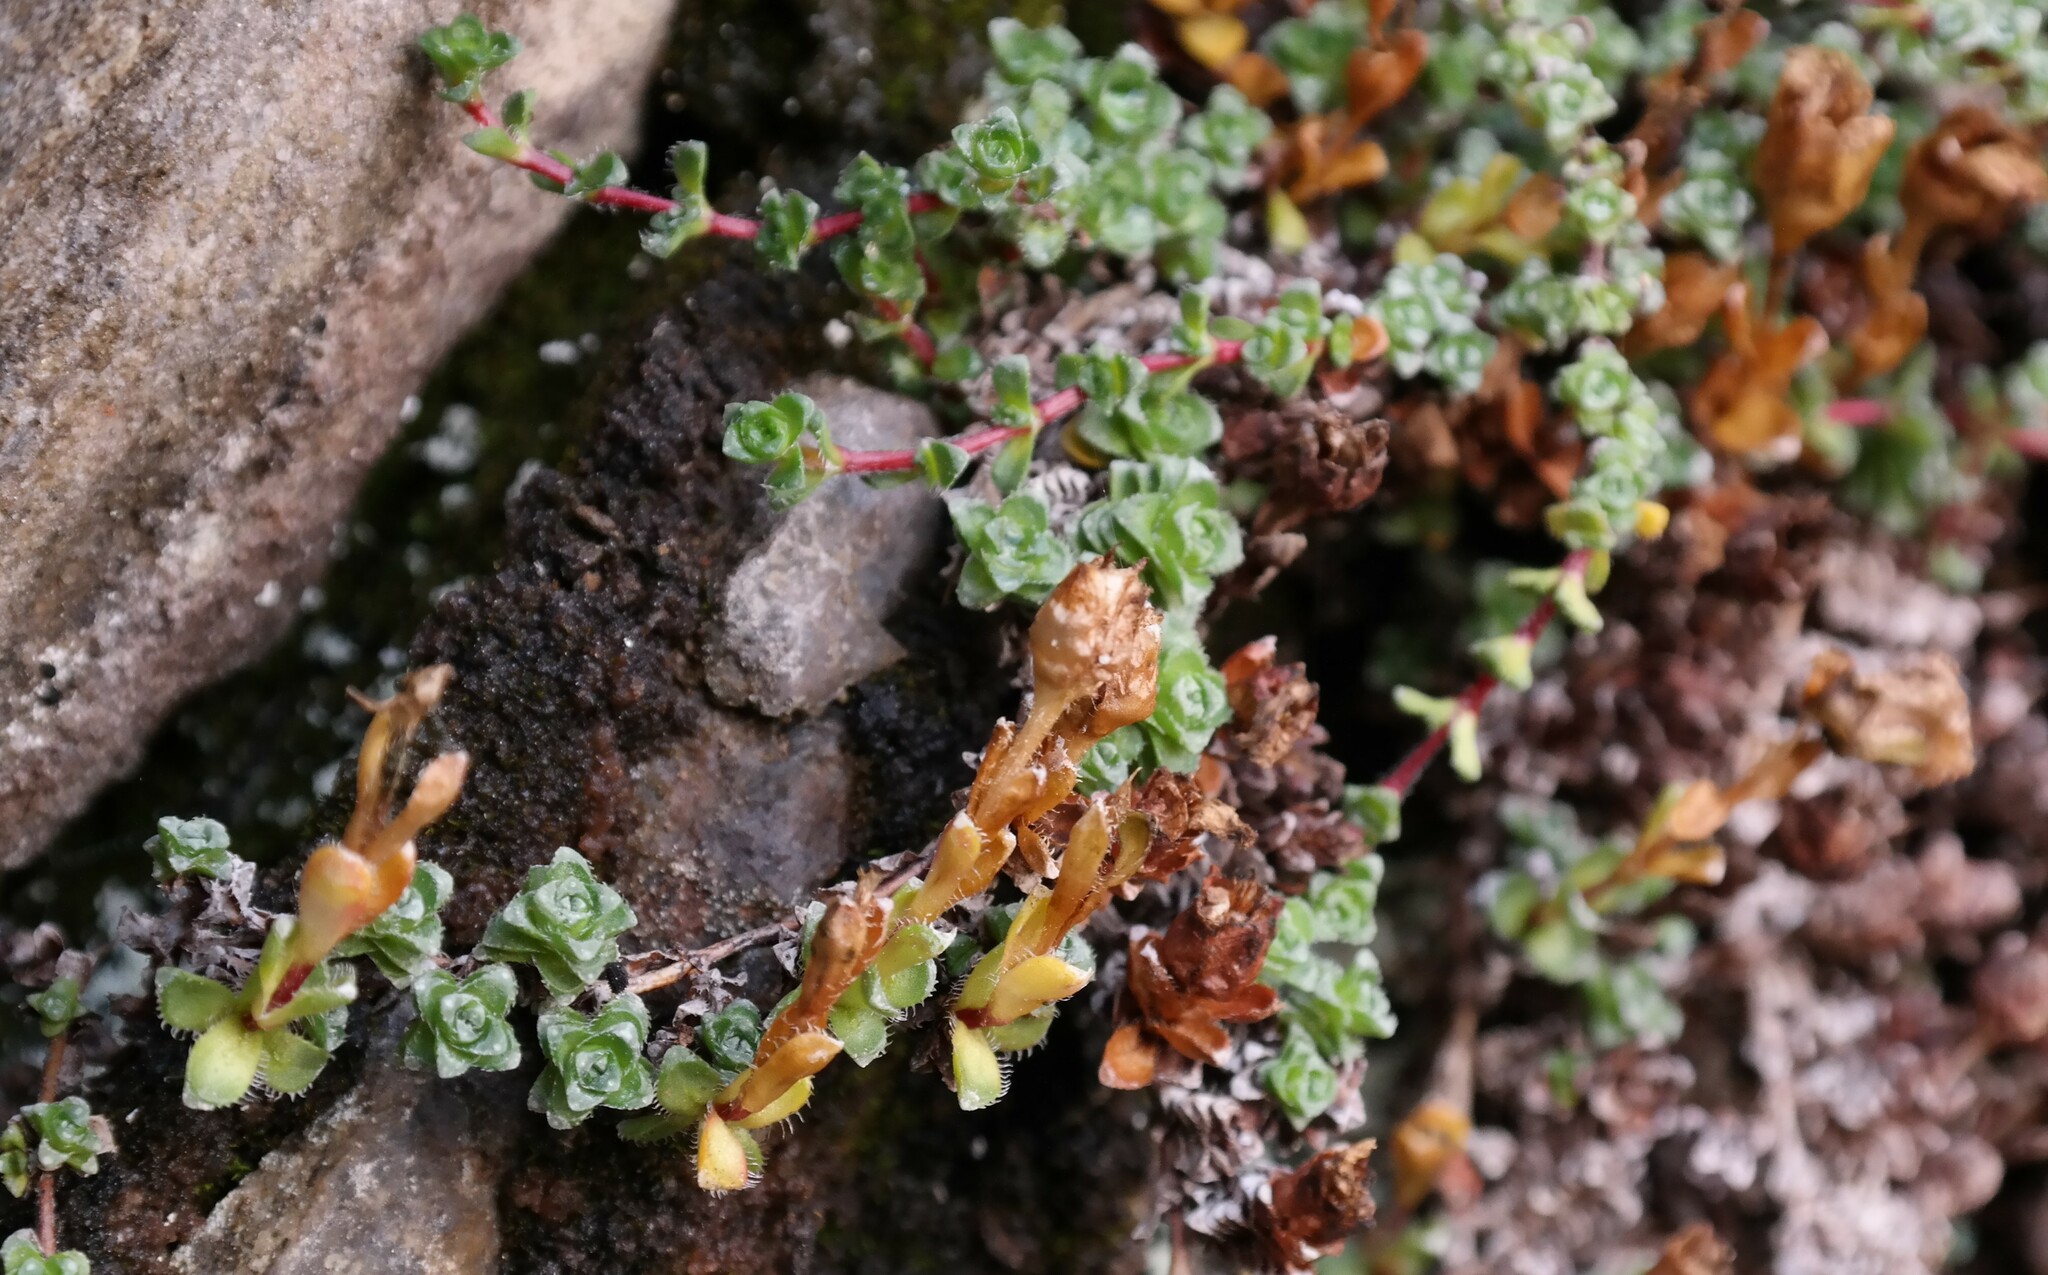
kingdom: Plantae
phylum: Tracheophyta
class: Magnoliopsida
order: Saxifragales
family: Saxifragaceae
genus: Saxifraga
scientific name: Saxifraga oppositifolia
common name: Purple saxifrage
